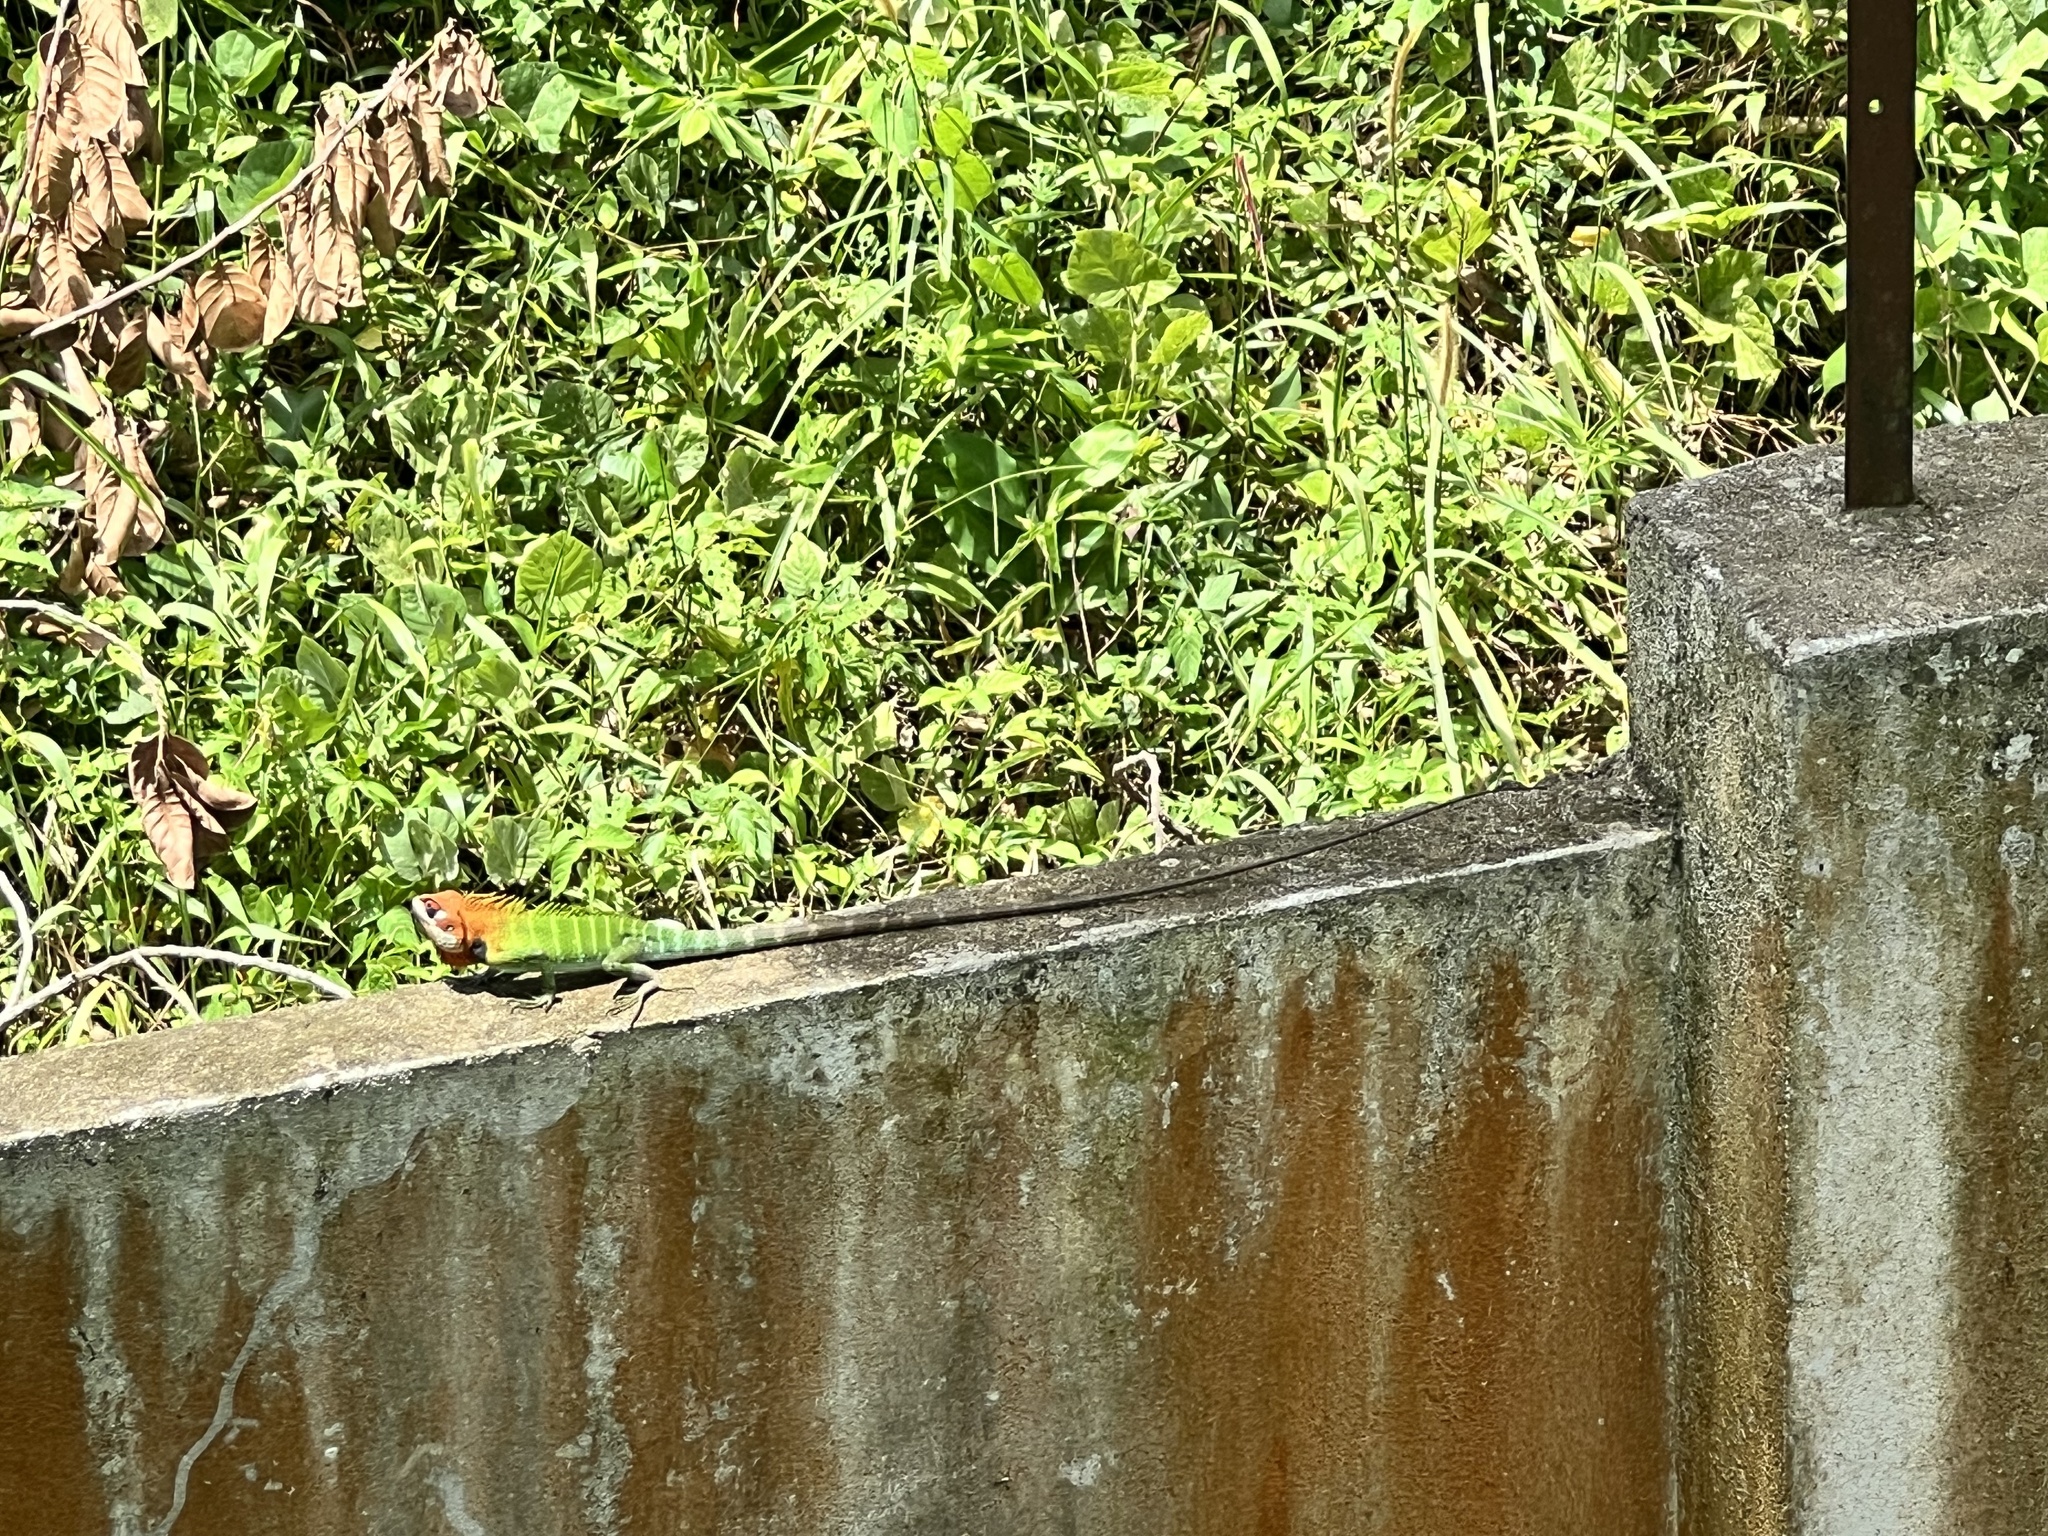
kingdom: Animalia
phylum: Chordata
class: Squamata
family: Agamidae
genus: Calotes
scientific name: Calotes calotes
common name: Common green forest lizard
